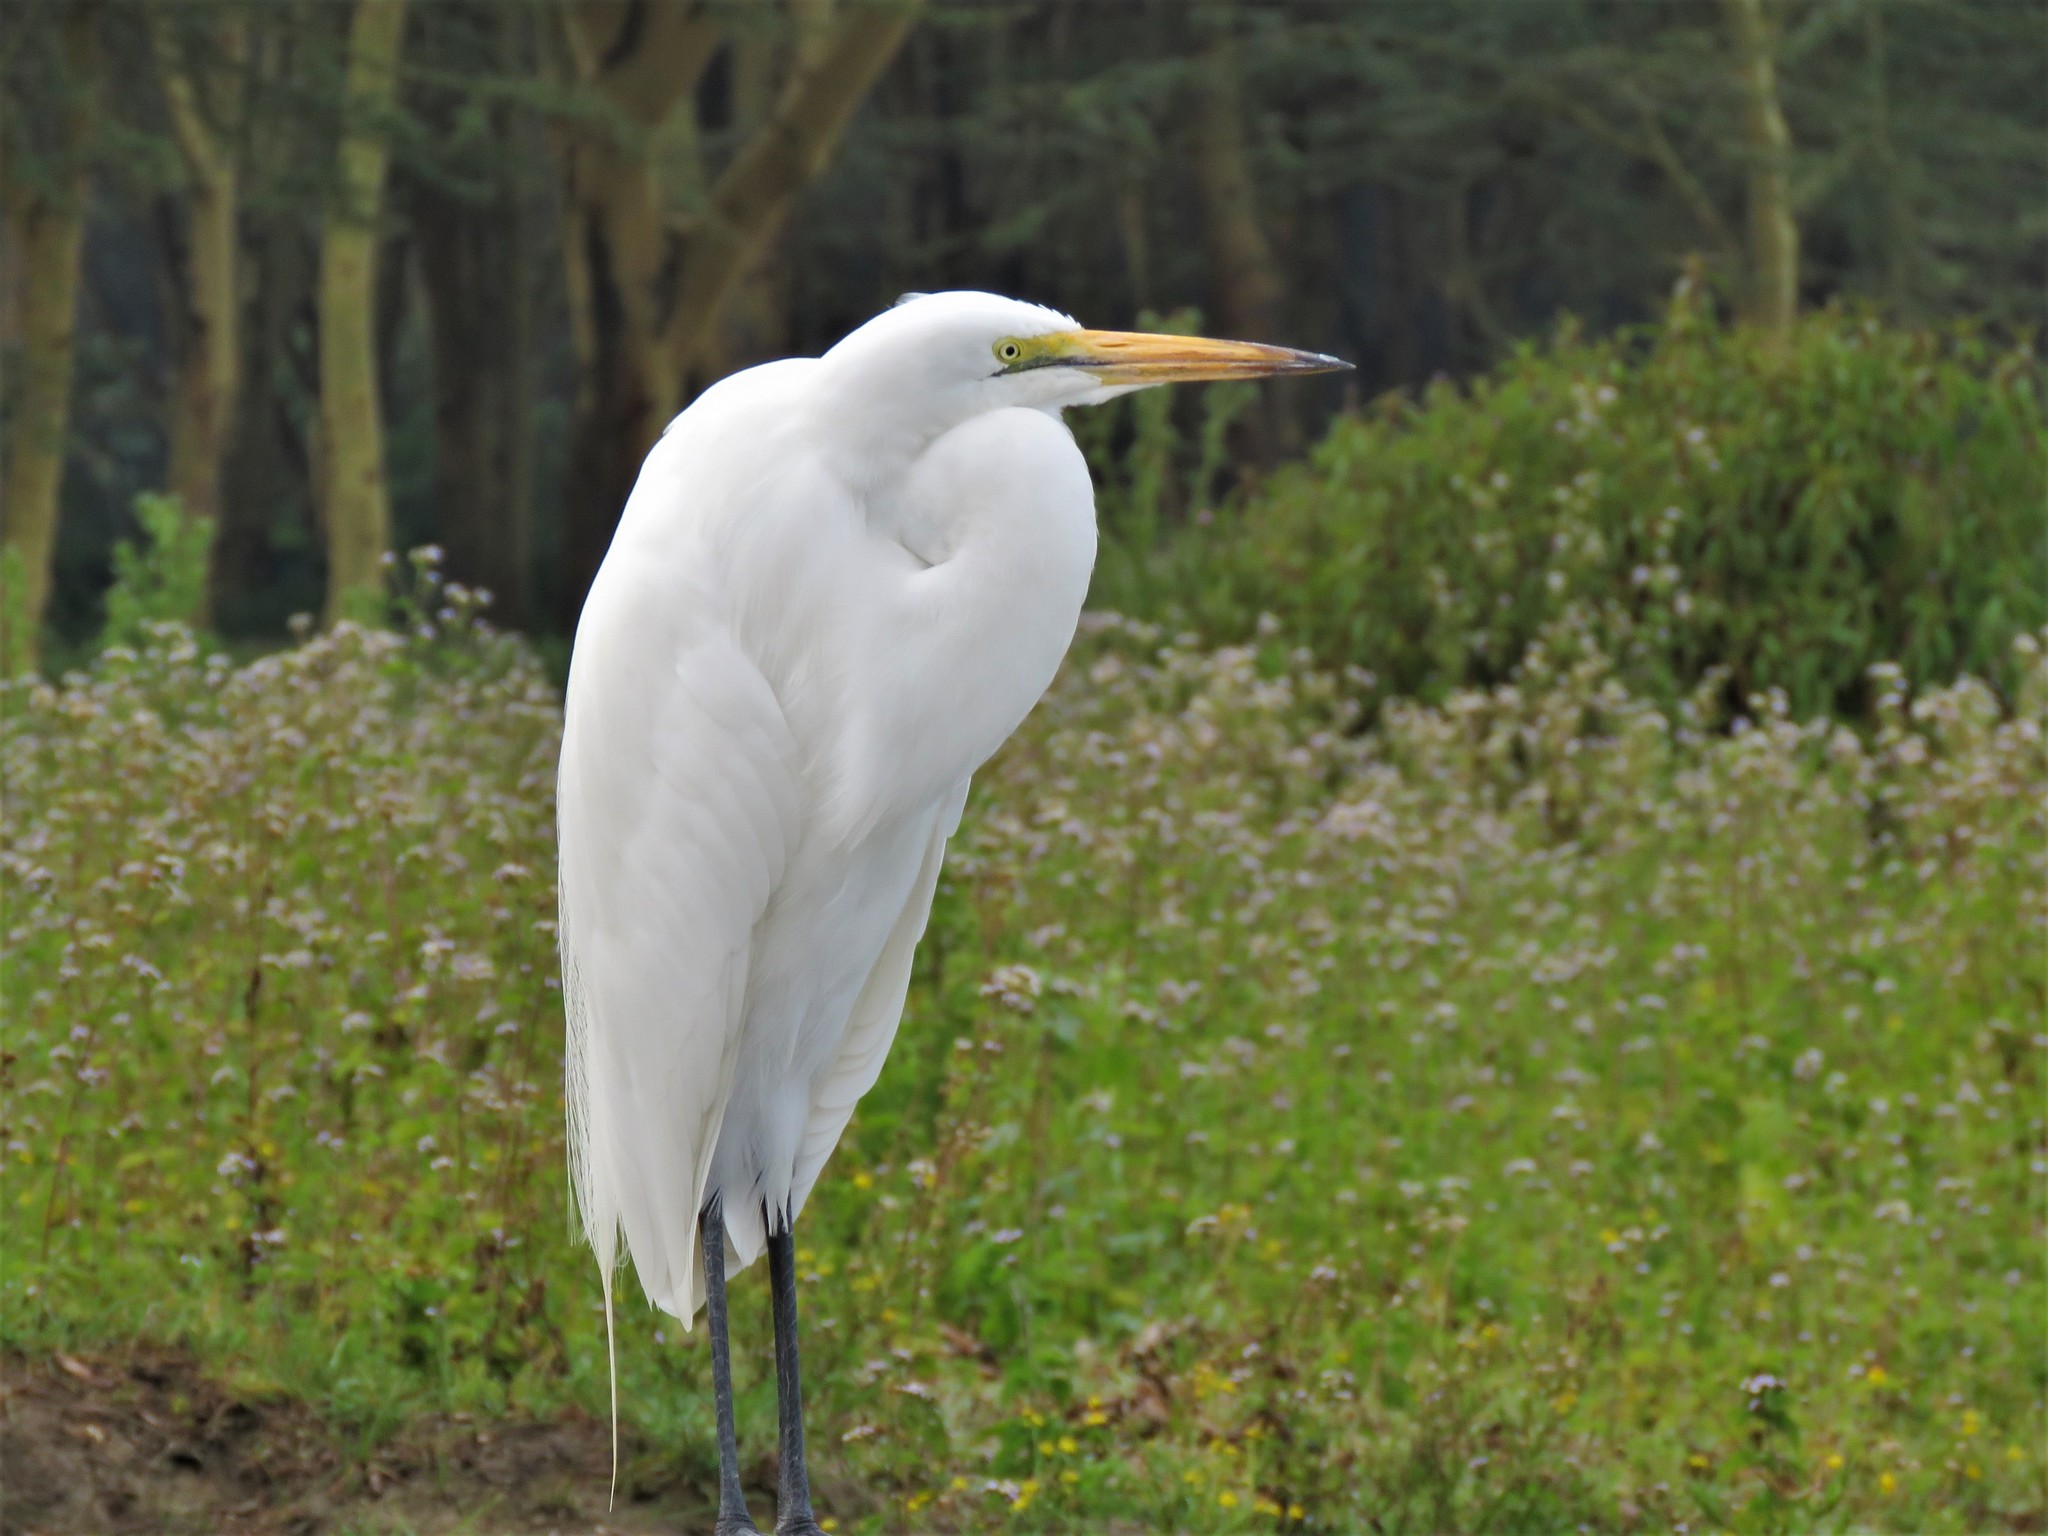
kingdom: Animalia
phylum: Chordata
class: Aves
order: Pelecaniformes
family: Ardeidae
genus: Ardea
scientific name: Ardea alba
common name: Great egret
